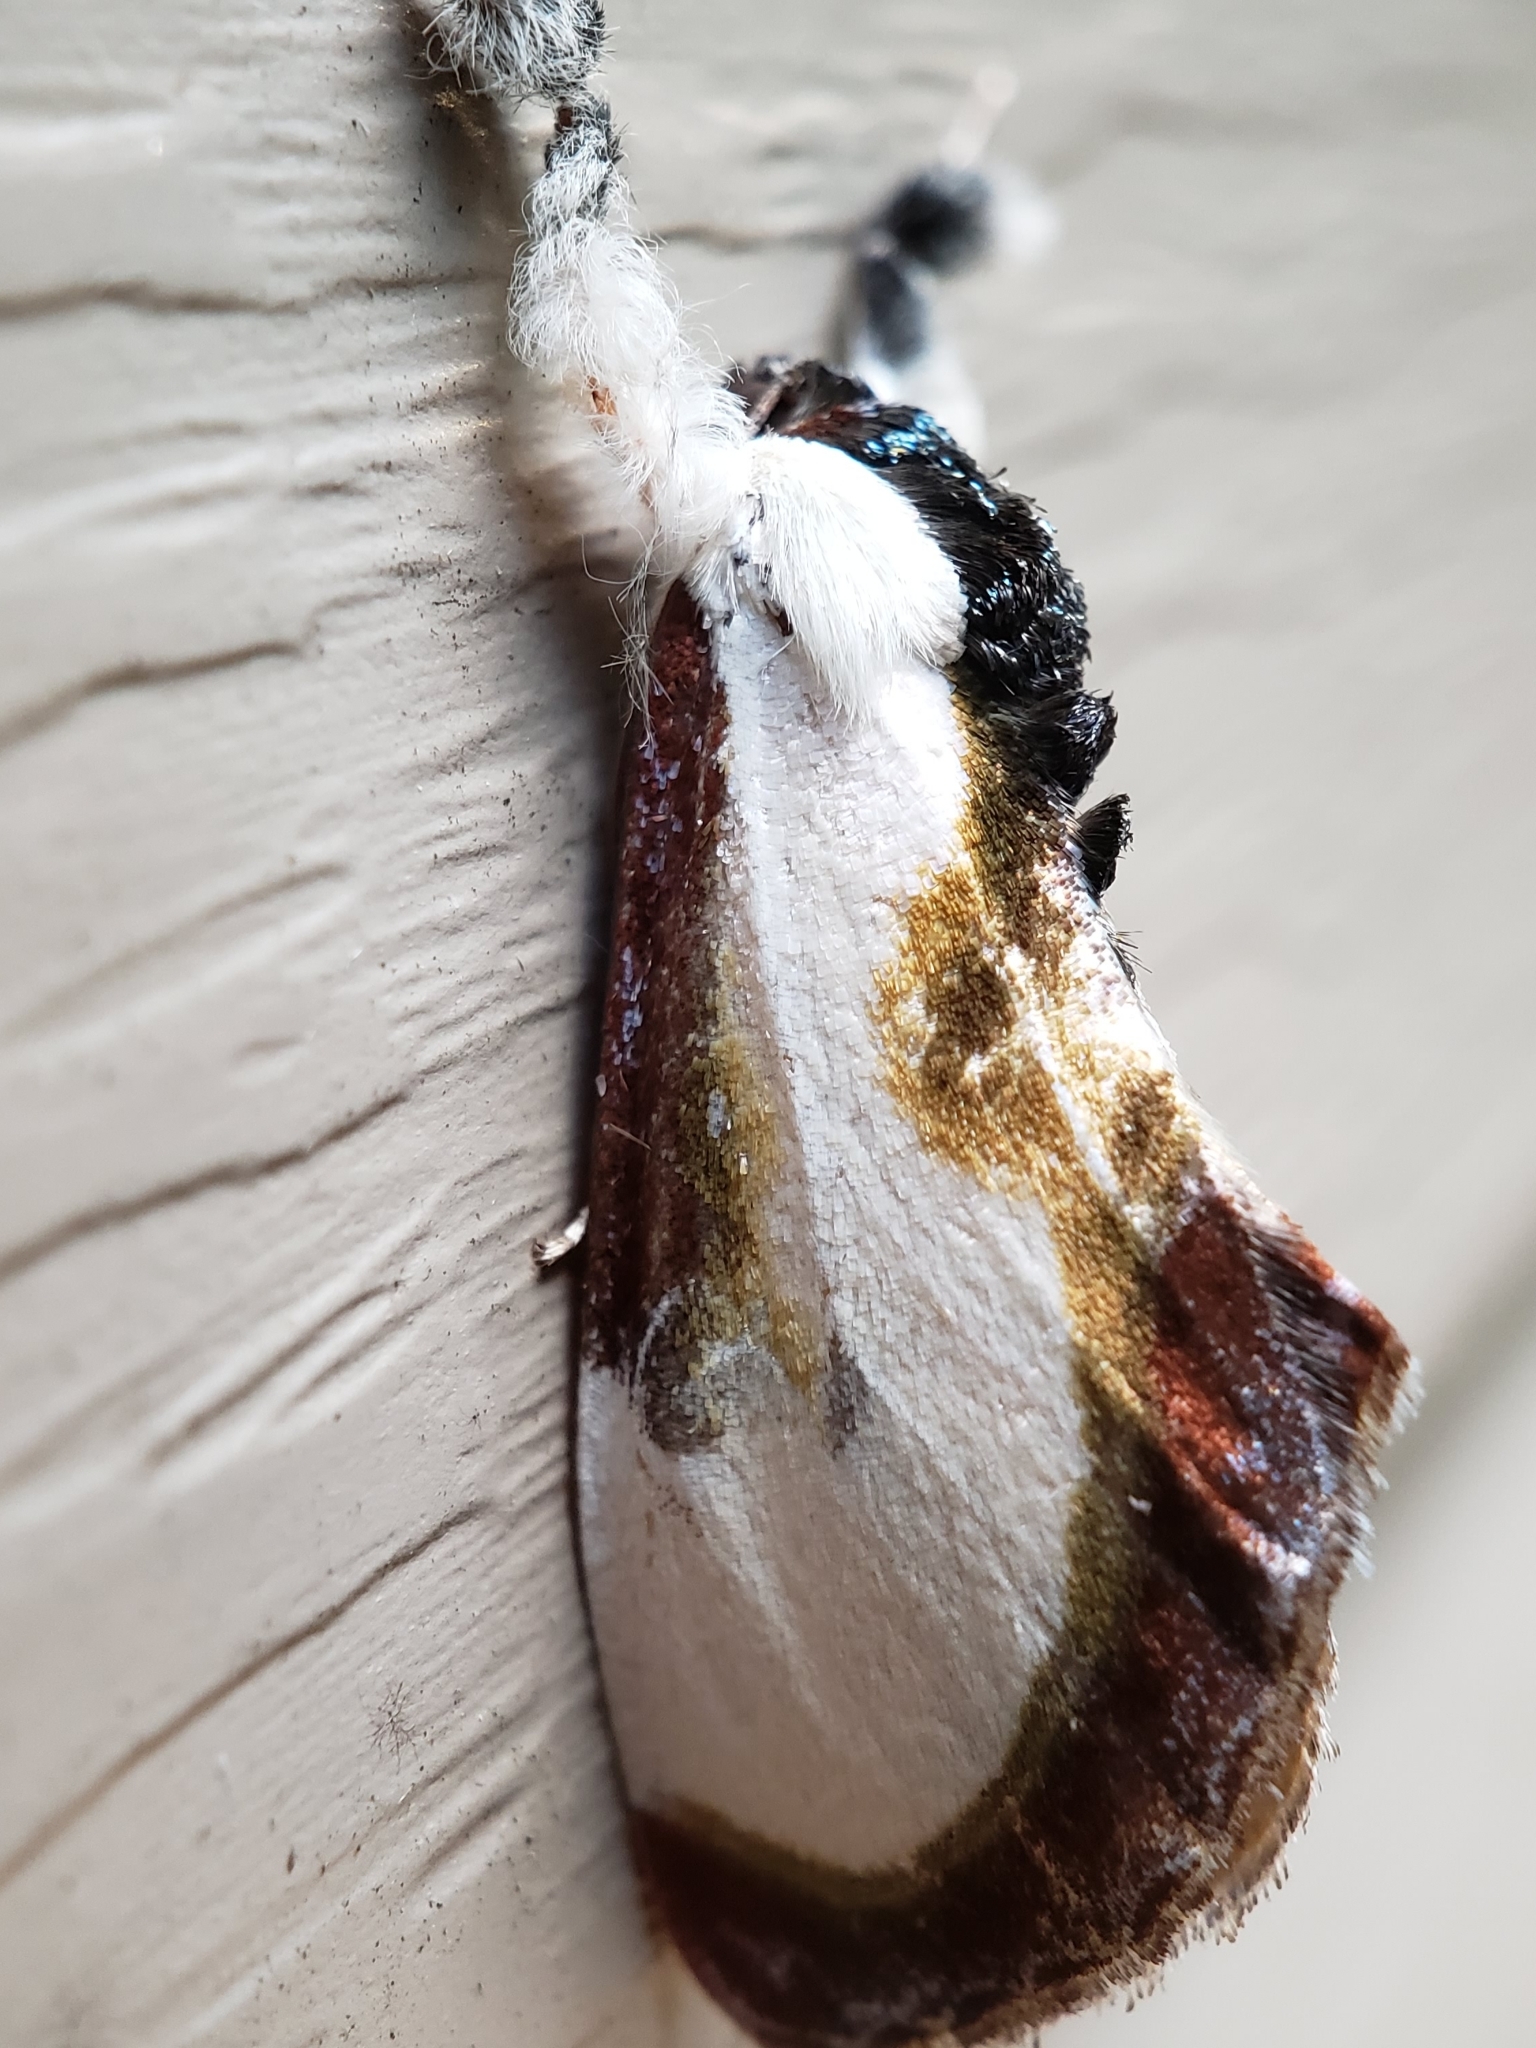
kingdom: Animalia
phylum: Arthropoda
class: Insecta
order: Lepidoptera
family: Noctuidae
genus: Eudryas
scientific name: Eudryas grata
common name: Beautiful wood-nymph
